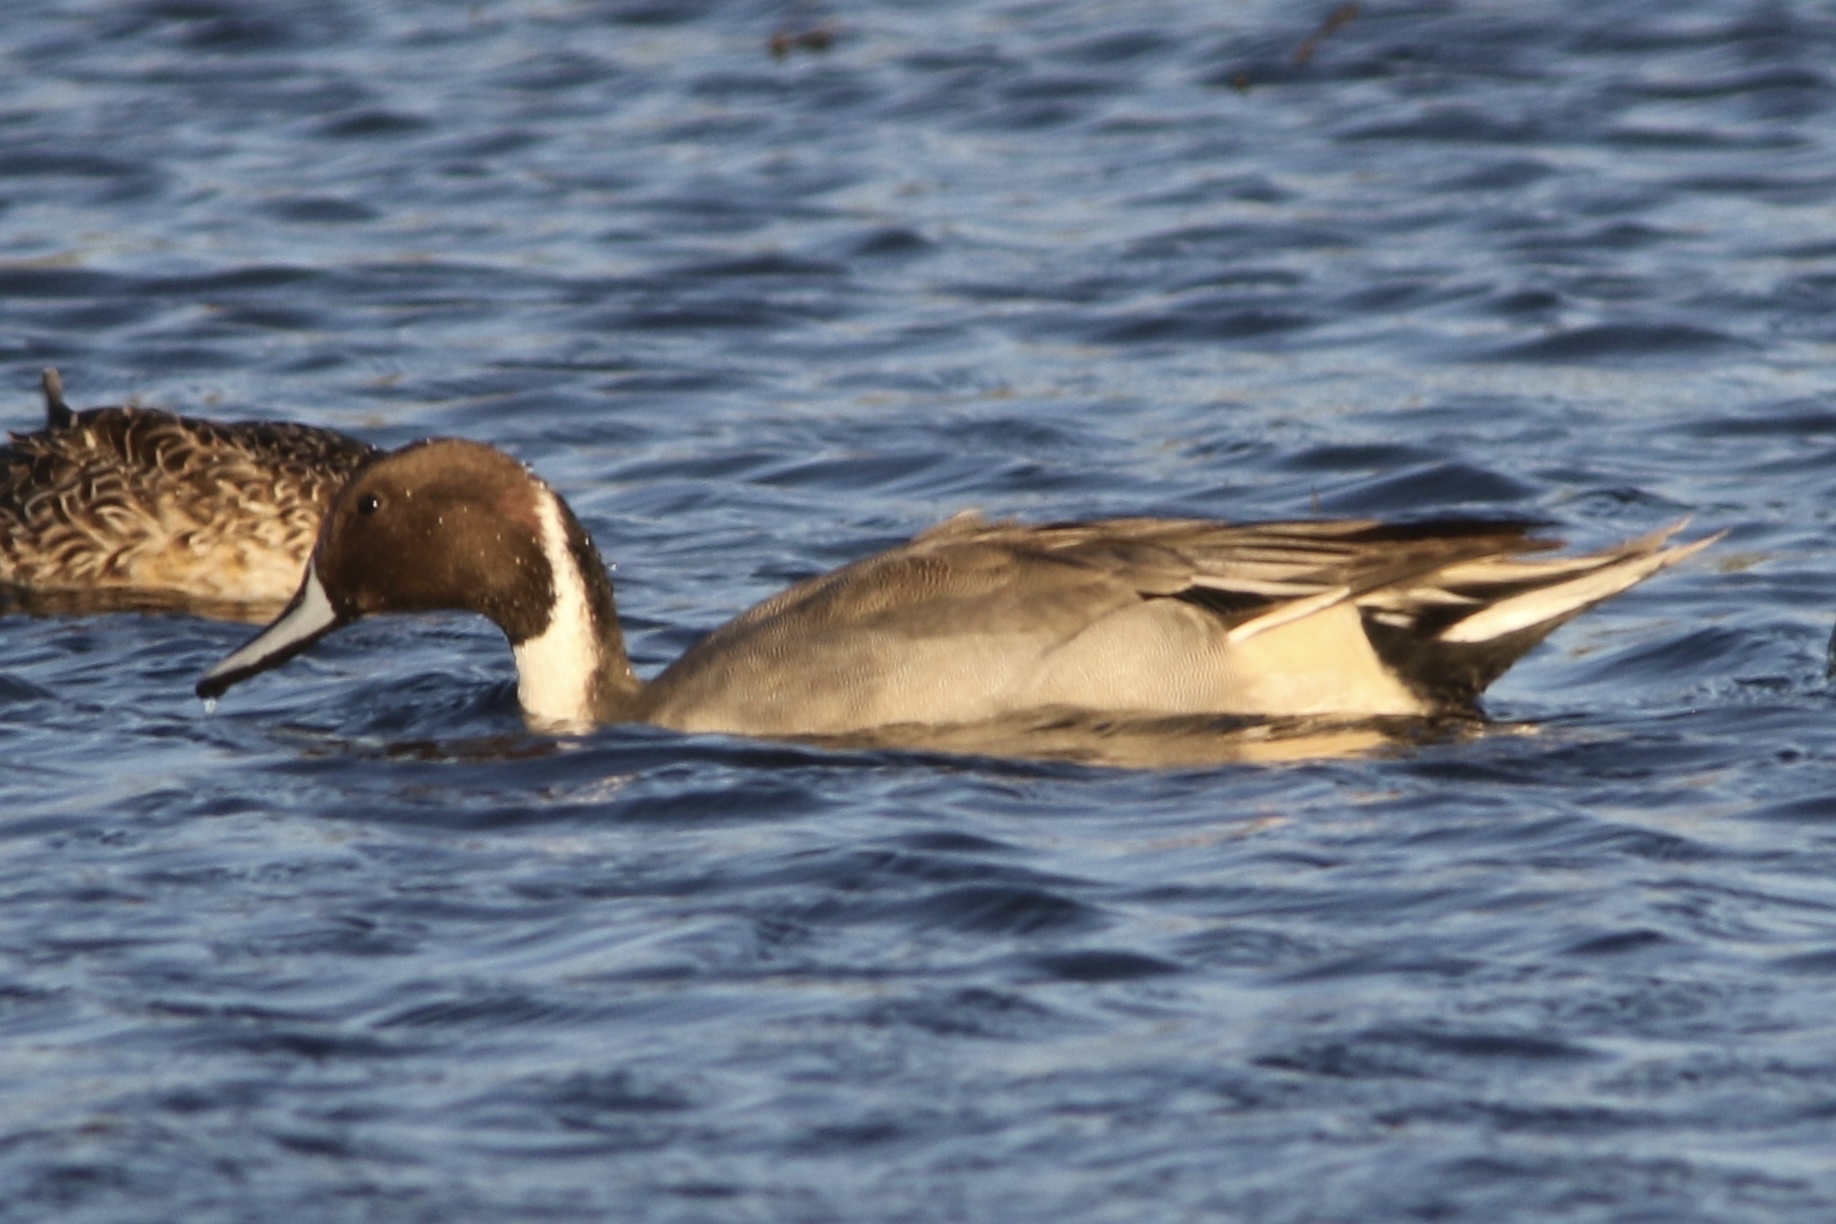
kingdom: Animalia
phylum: Chordata
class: Aves
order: Anseriformes
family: Anatidae
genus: Anas
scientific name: Anas acuta
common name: Northern pintail
